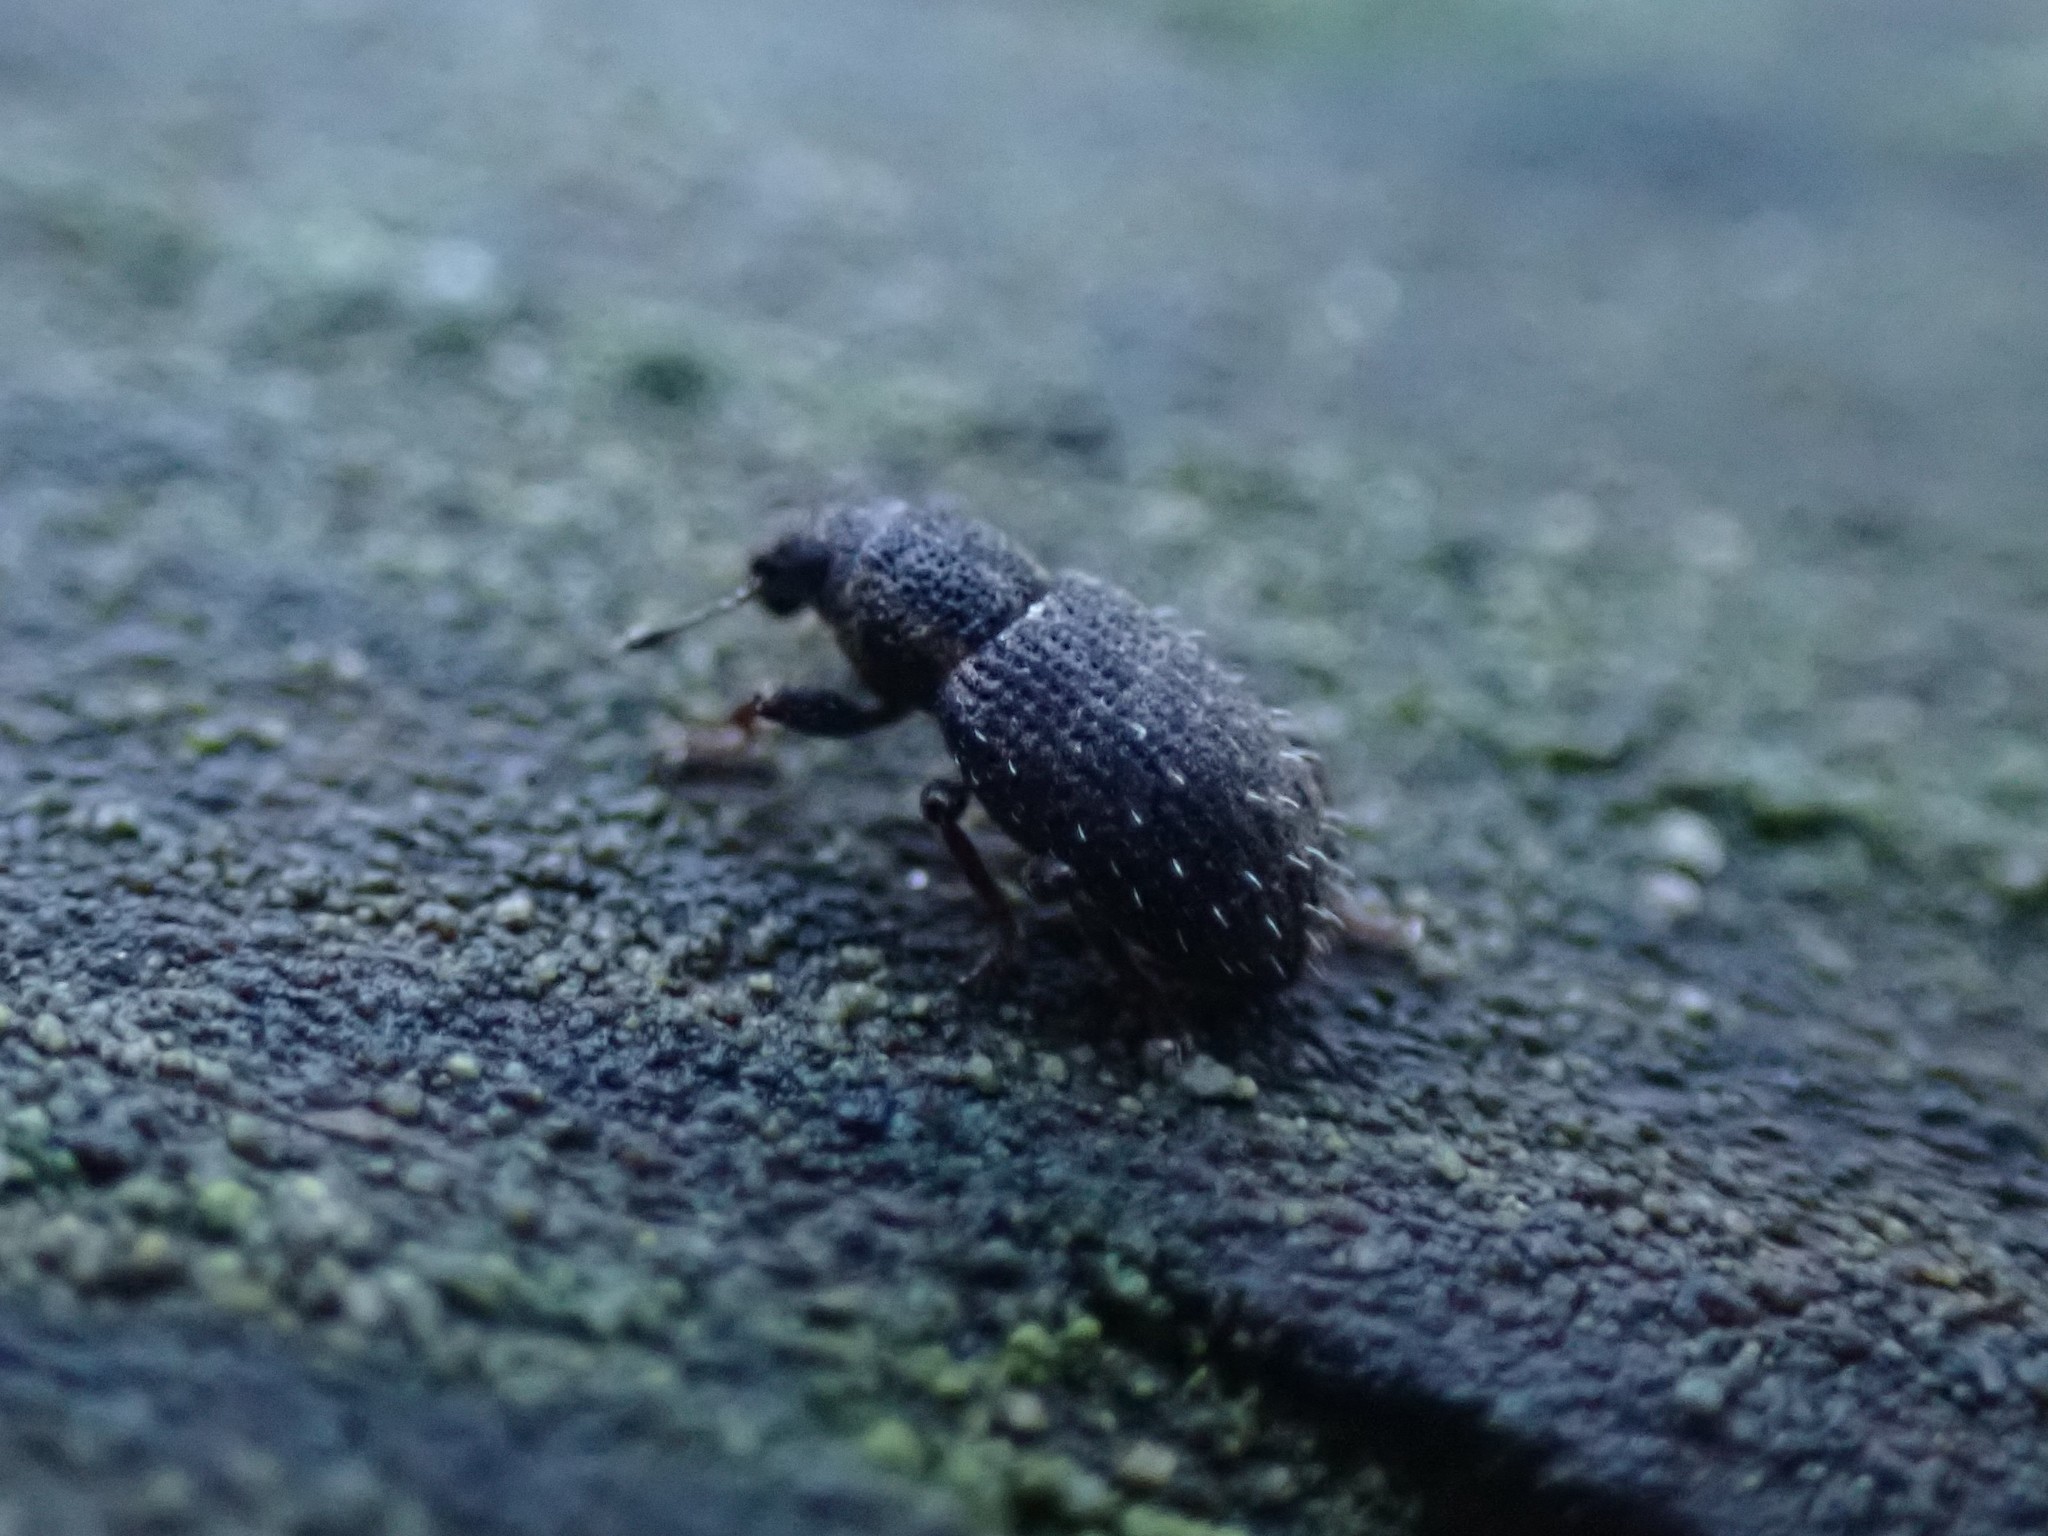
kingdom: Animalia
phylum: Arthropoda
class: Insecta
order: Coleoptera
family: Curculionidae
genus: Sitona
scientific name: Sitona hispidulus
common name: Clover weevil
